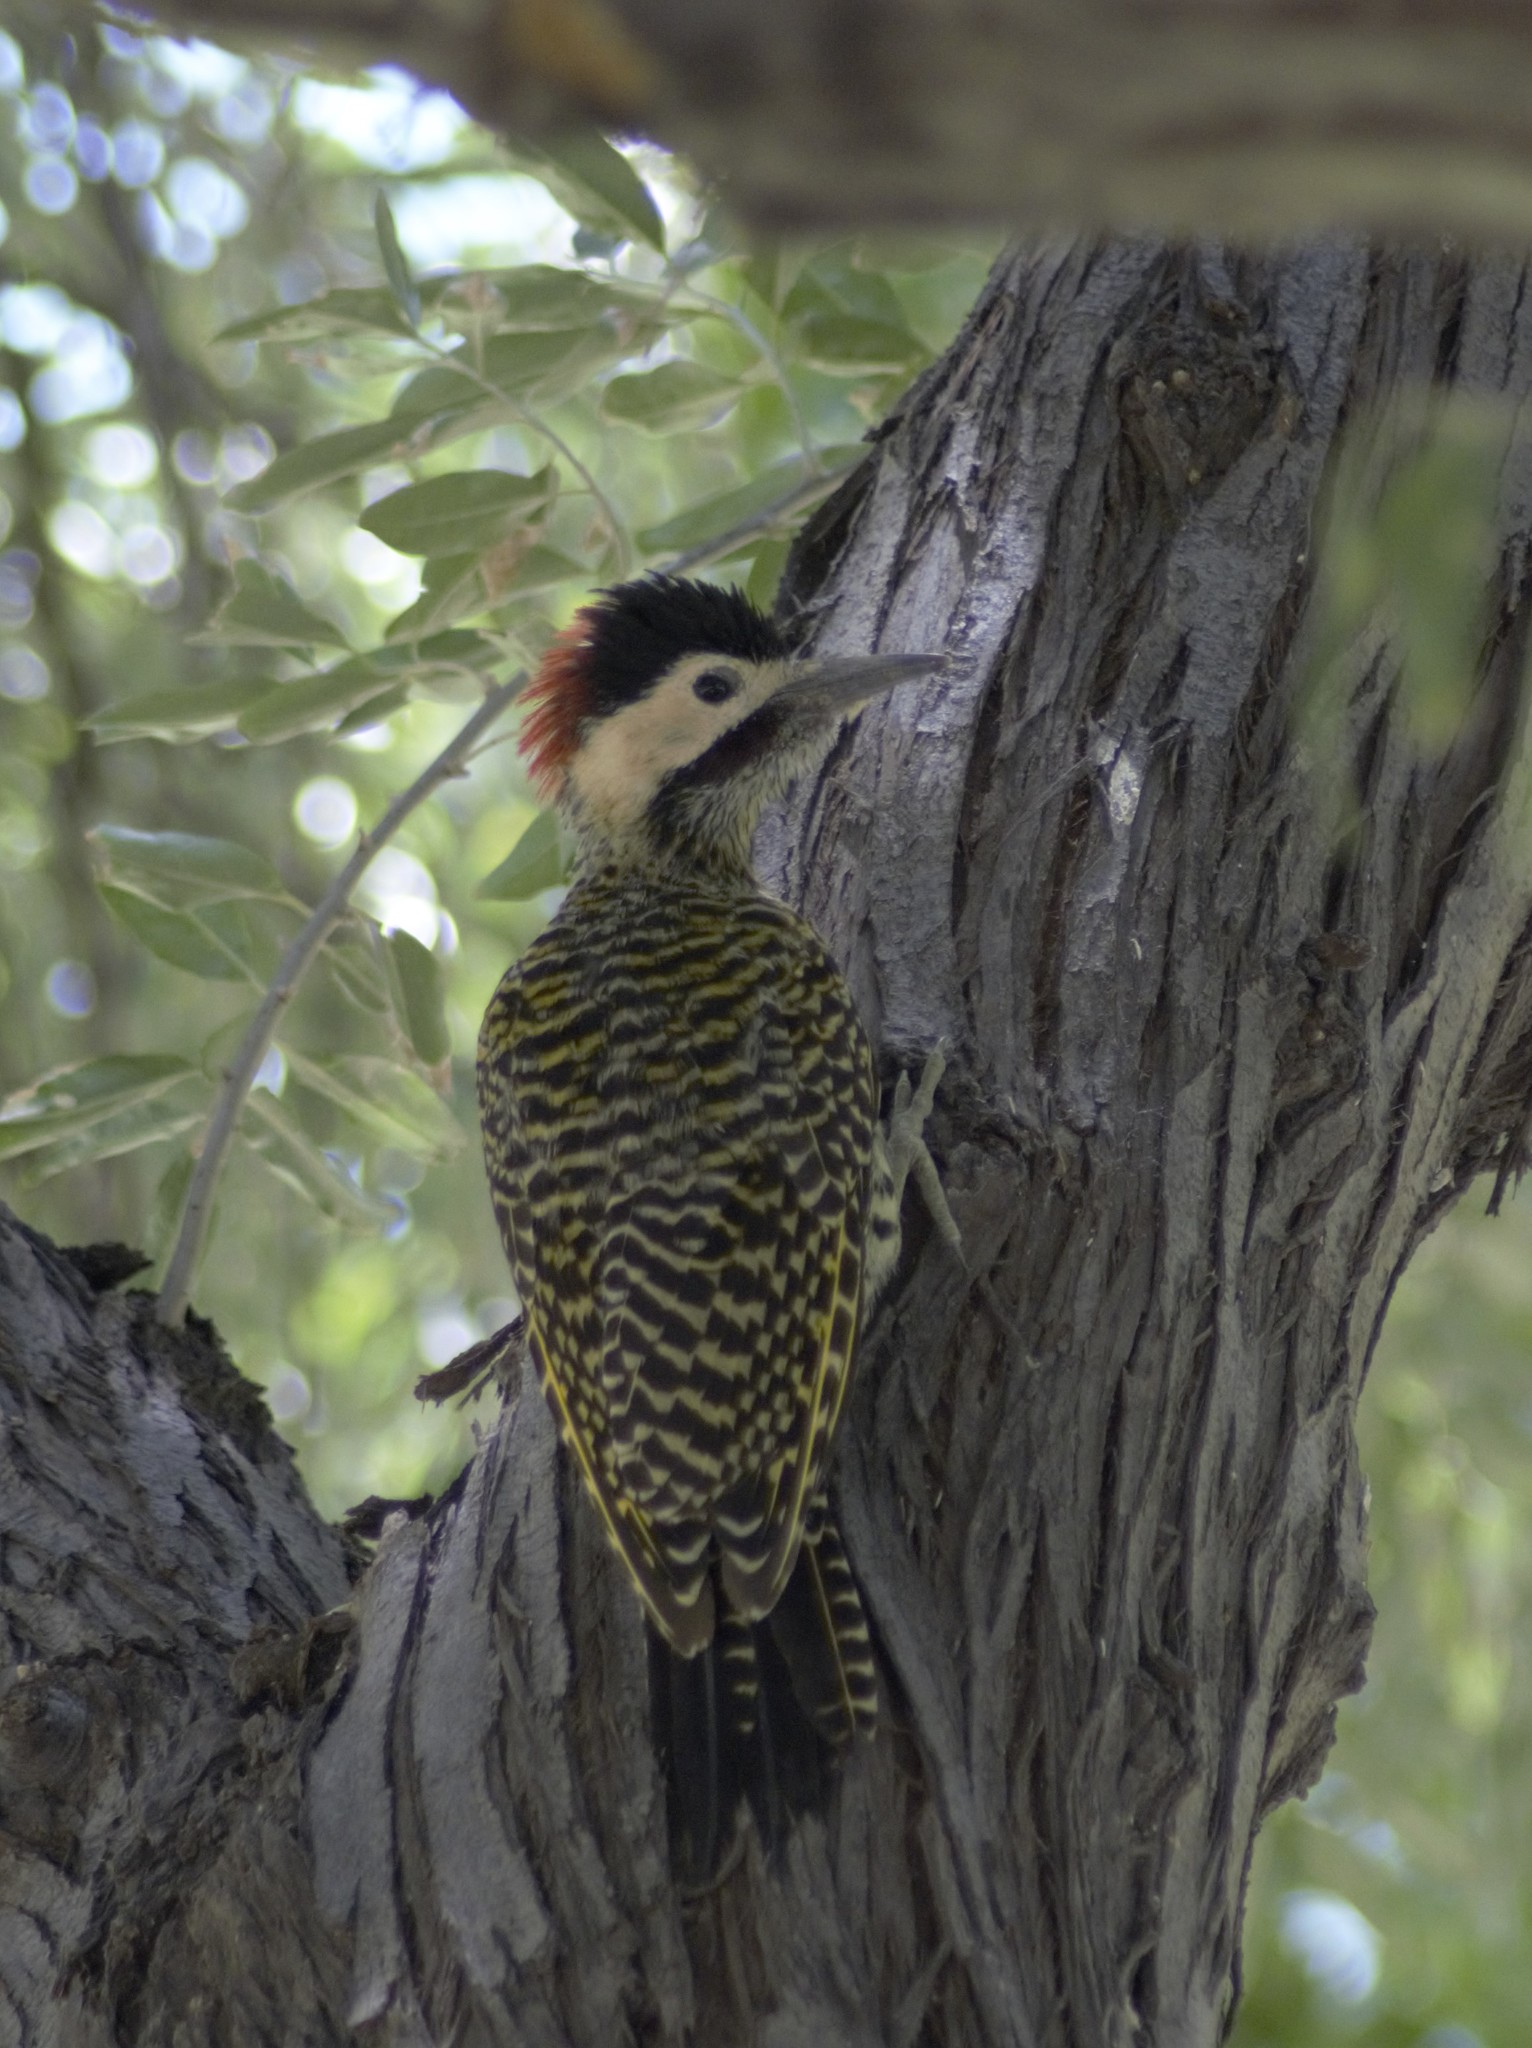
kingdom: Animalia
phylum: Chordata
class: Aves
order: Piciformes
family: Picidae
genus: Colaptes
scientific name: Colaptes melanochloros
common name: Green-barred woodpecker
